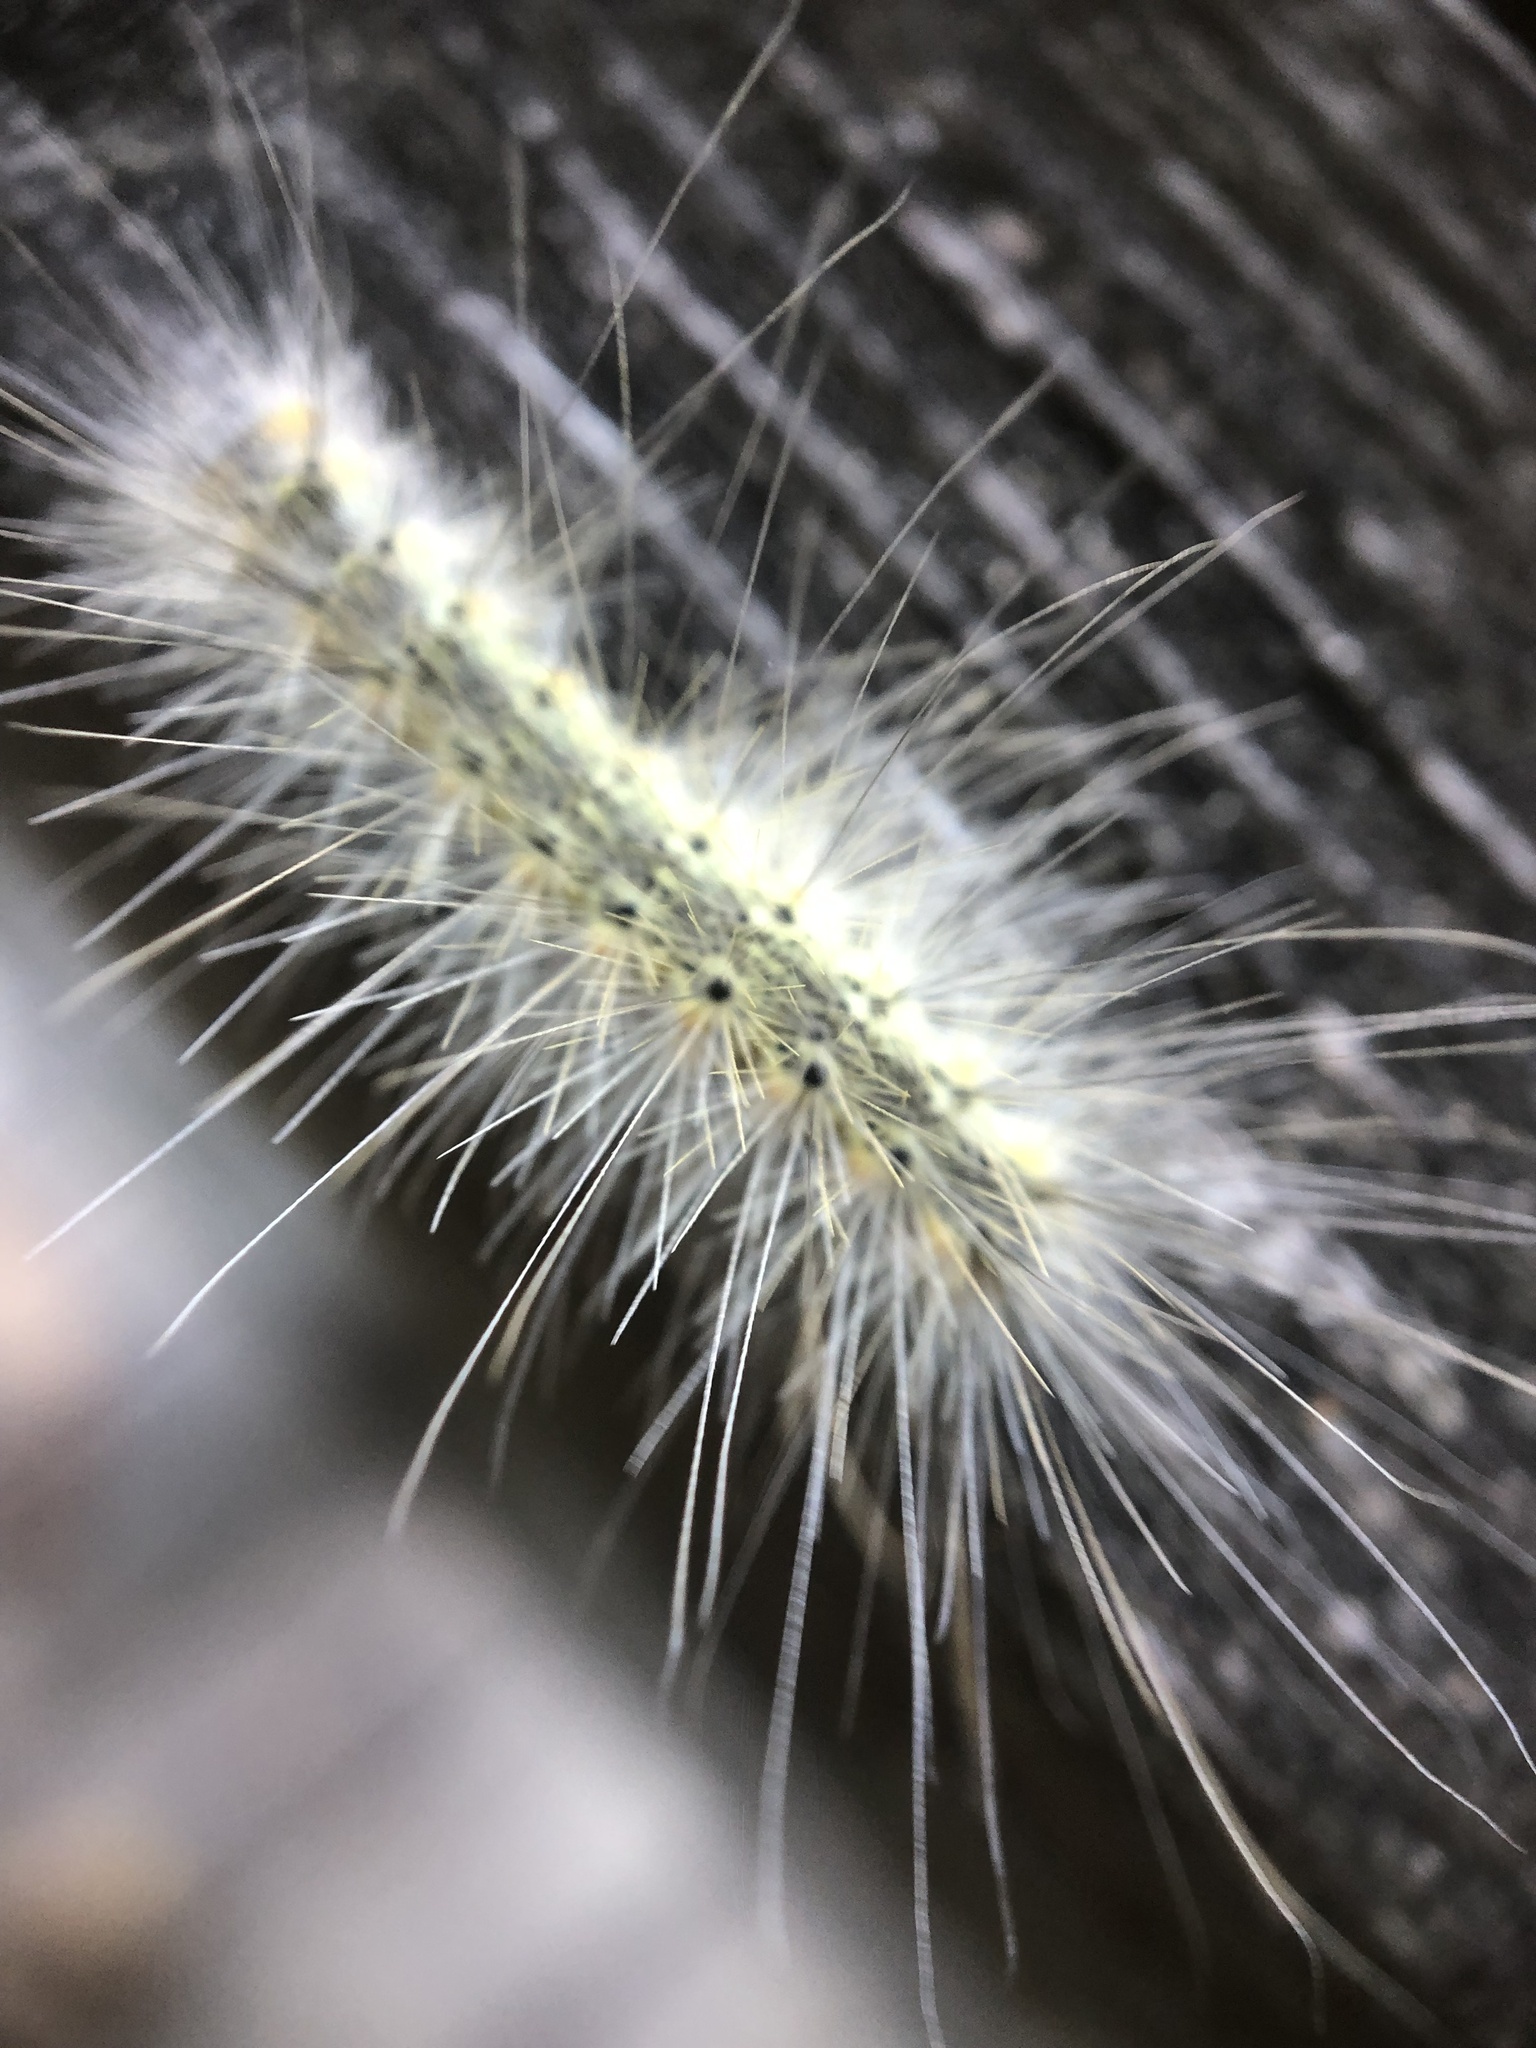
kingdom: Animalia
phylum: Arthropoda
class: Insecta
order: Lepidoptera
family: Erebidae
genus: Hyphantria
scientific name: Hyphantria cunea
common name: American white moth
